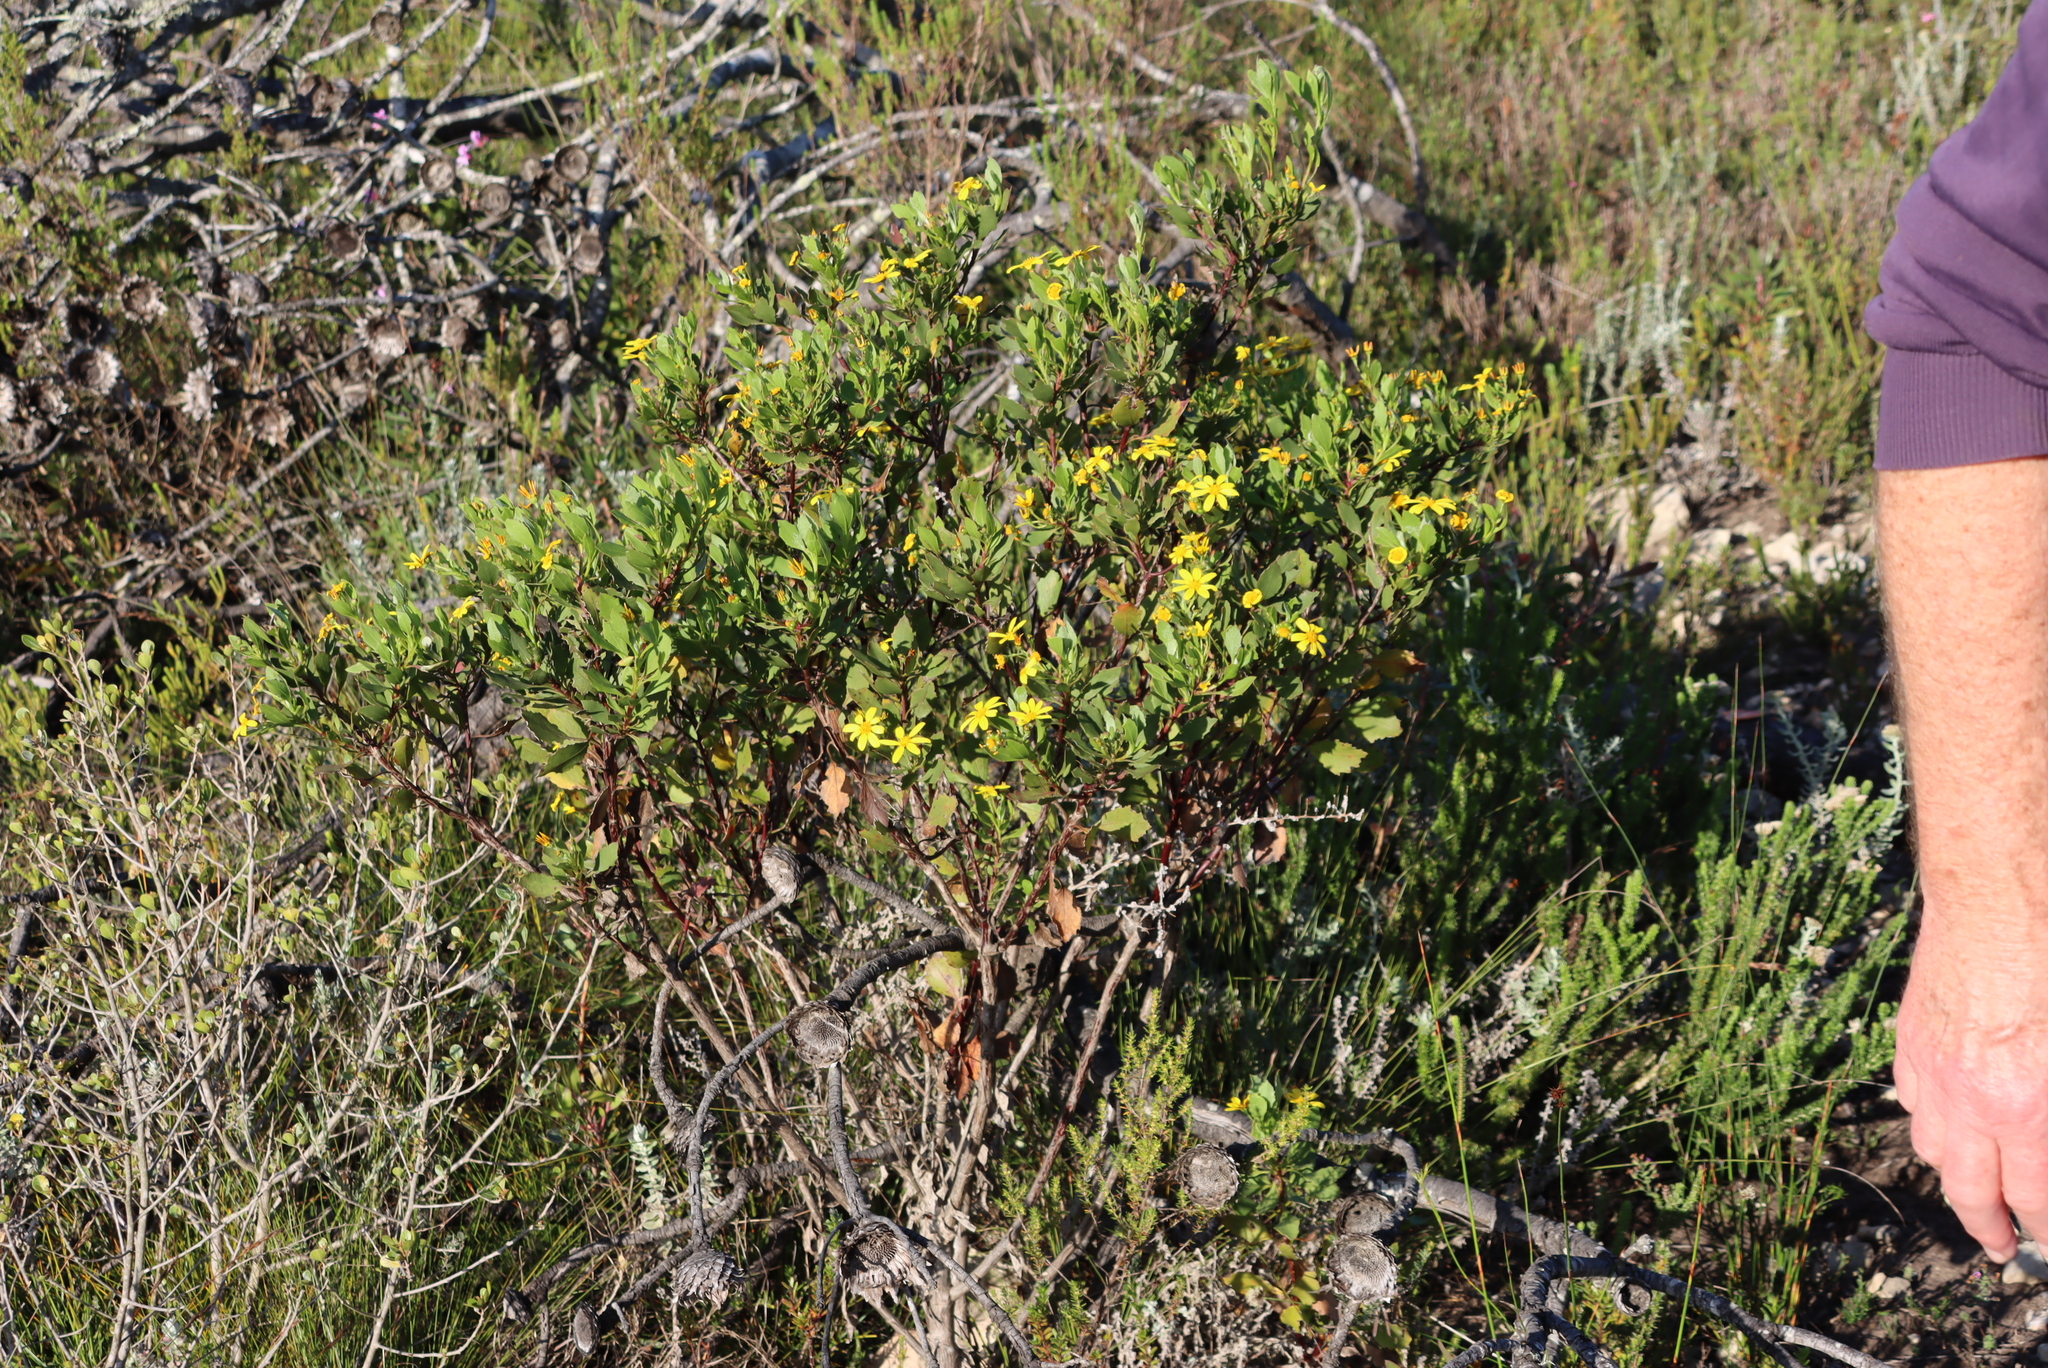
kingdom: Plantae
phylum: Tracheophyta
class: Magnoliopsida
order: Asterales
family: Asteraceae
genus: Osteospermum
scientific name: Osteospermum moniliferum
